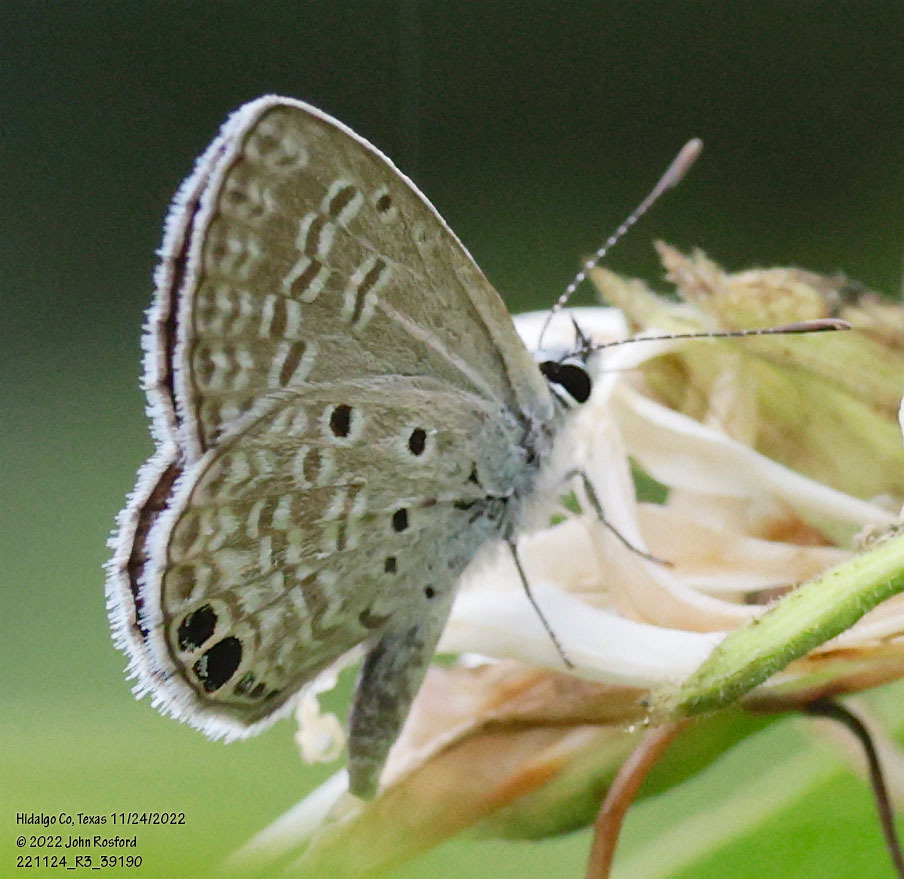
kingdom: Animalia
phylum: Arthropoda
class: Insecta
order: Lepidoptera
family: Lycaenidae
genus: Hemiargus
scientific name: Hemiargus ceraunus
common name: Ceraunus blue
